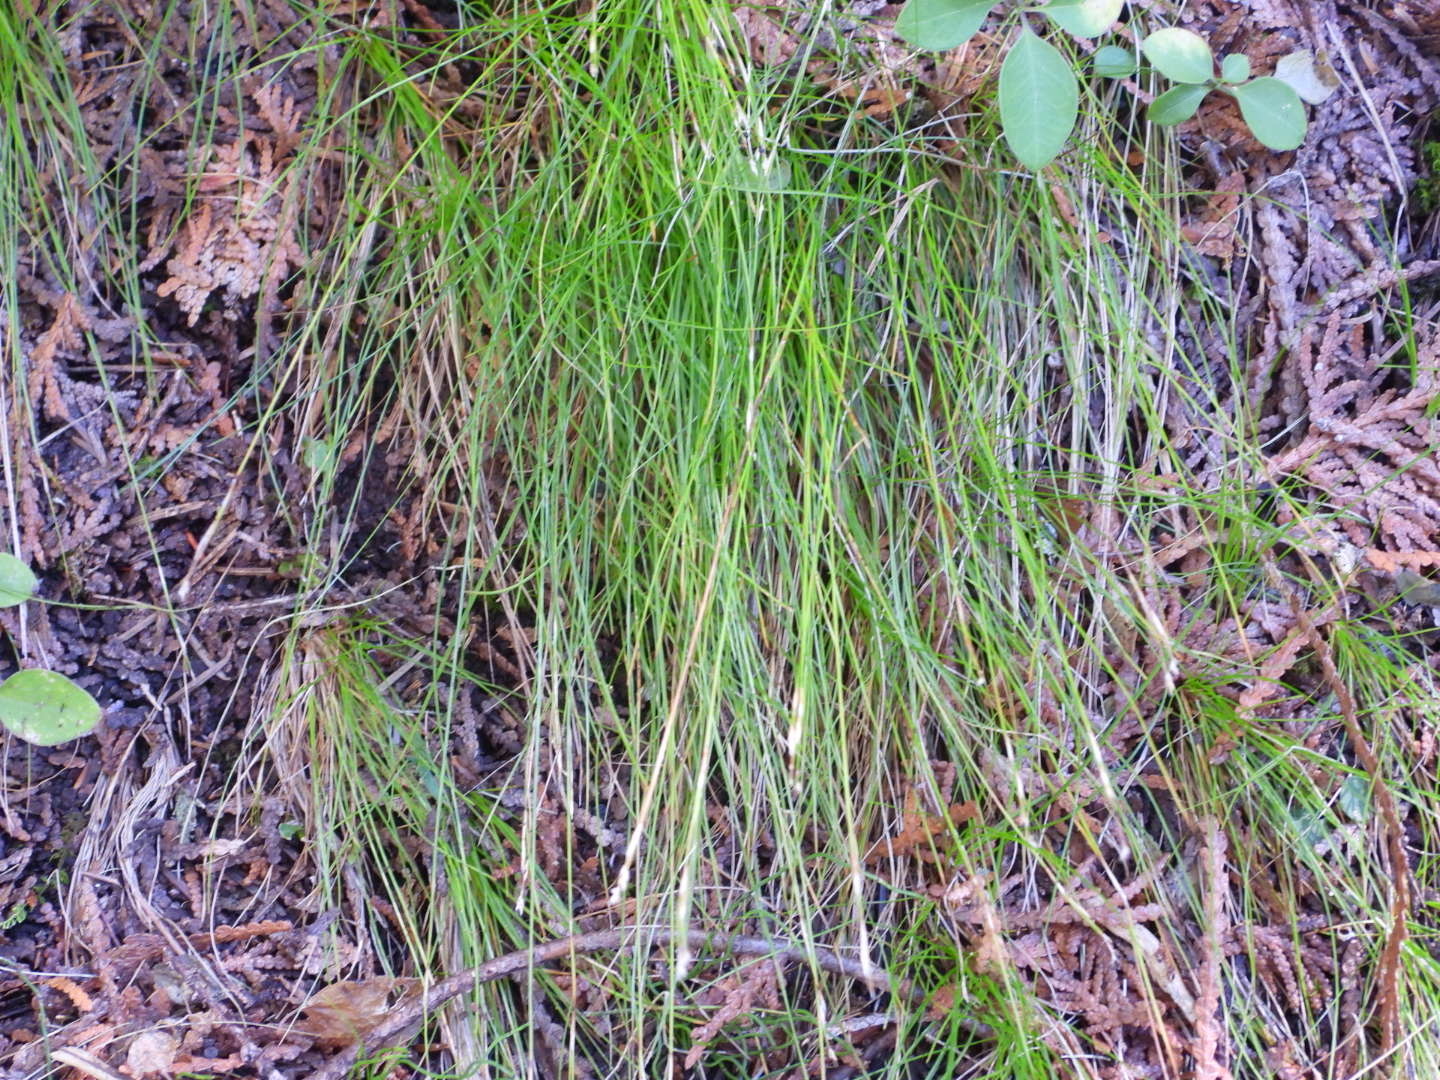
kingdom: Plantae
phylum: Tracheophyta
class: Liliopsida
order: Poales
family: Cyperaceae
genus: Carex
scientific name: Carex eburnea
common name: Bristle-leaved sedge
